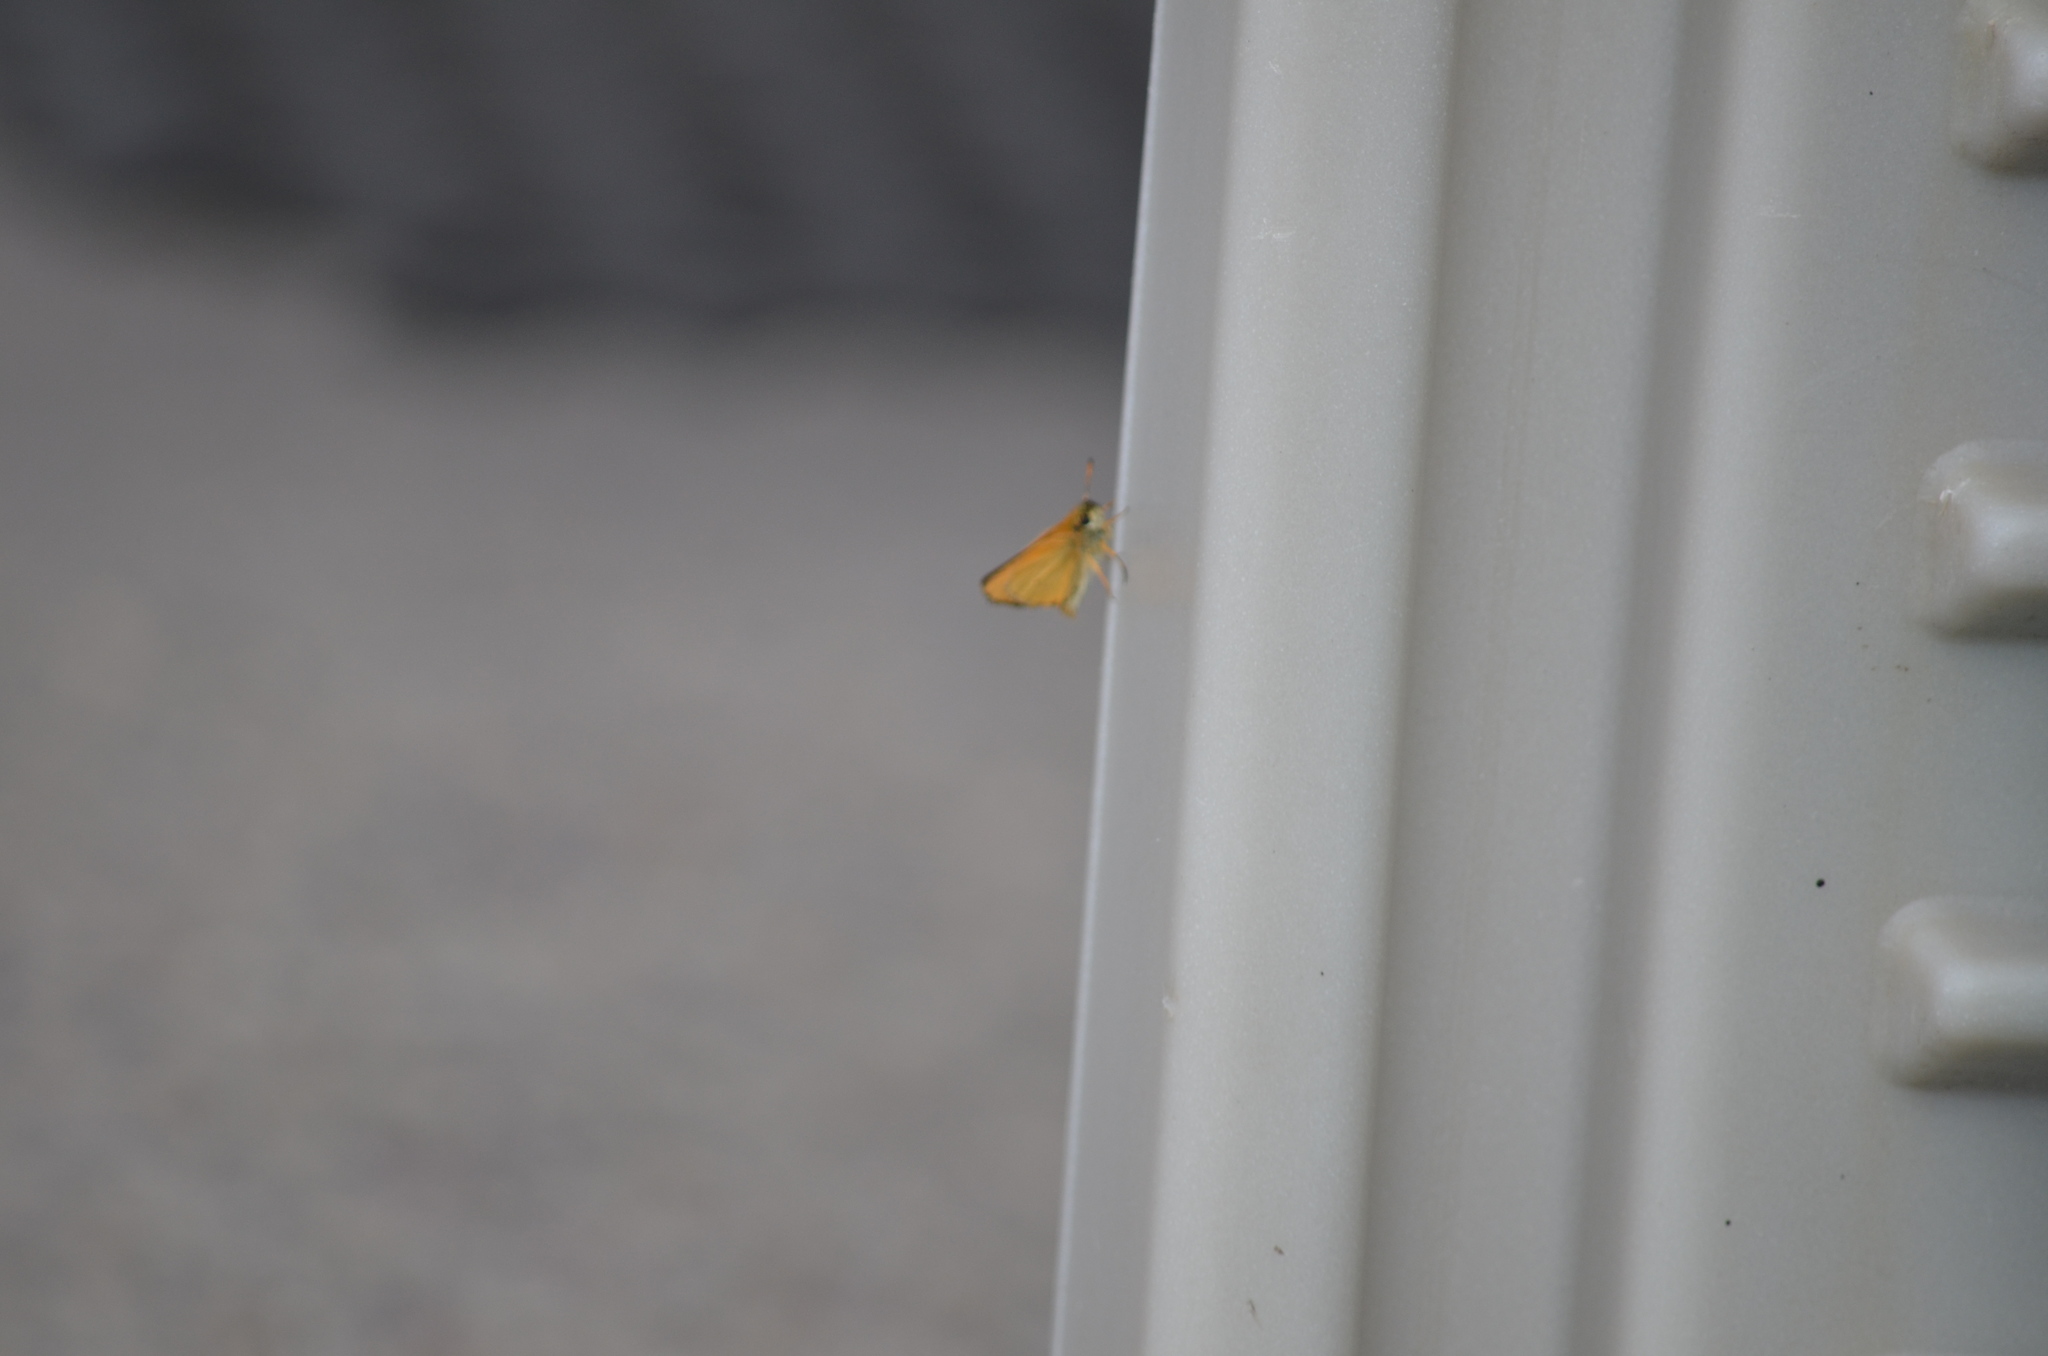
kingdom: Animalia
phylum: Arthropoda
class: Insecta
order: Lepidoptera
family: Hesperiidae
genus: Thymelicus
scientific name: Thymelicus lineola
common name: Essex skipper
